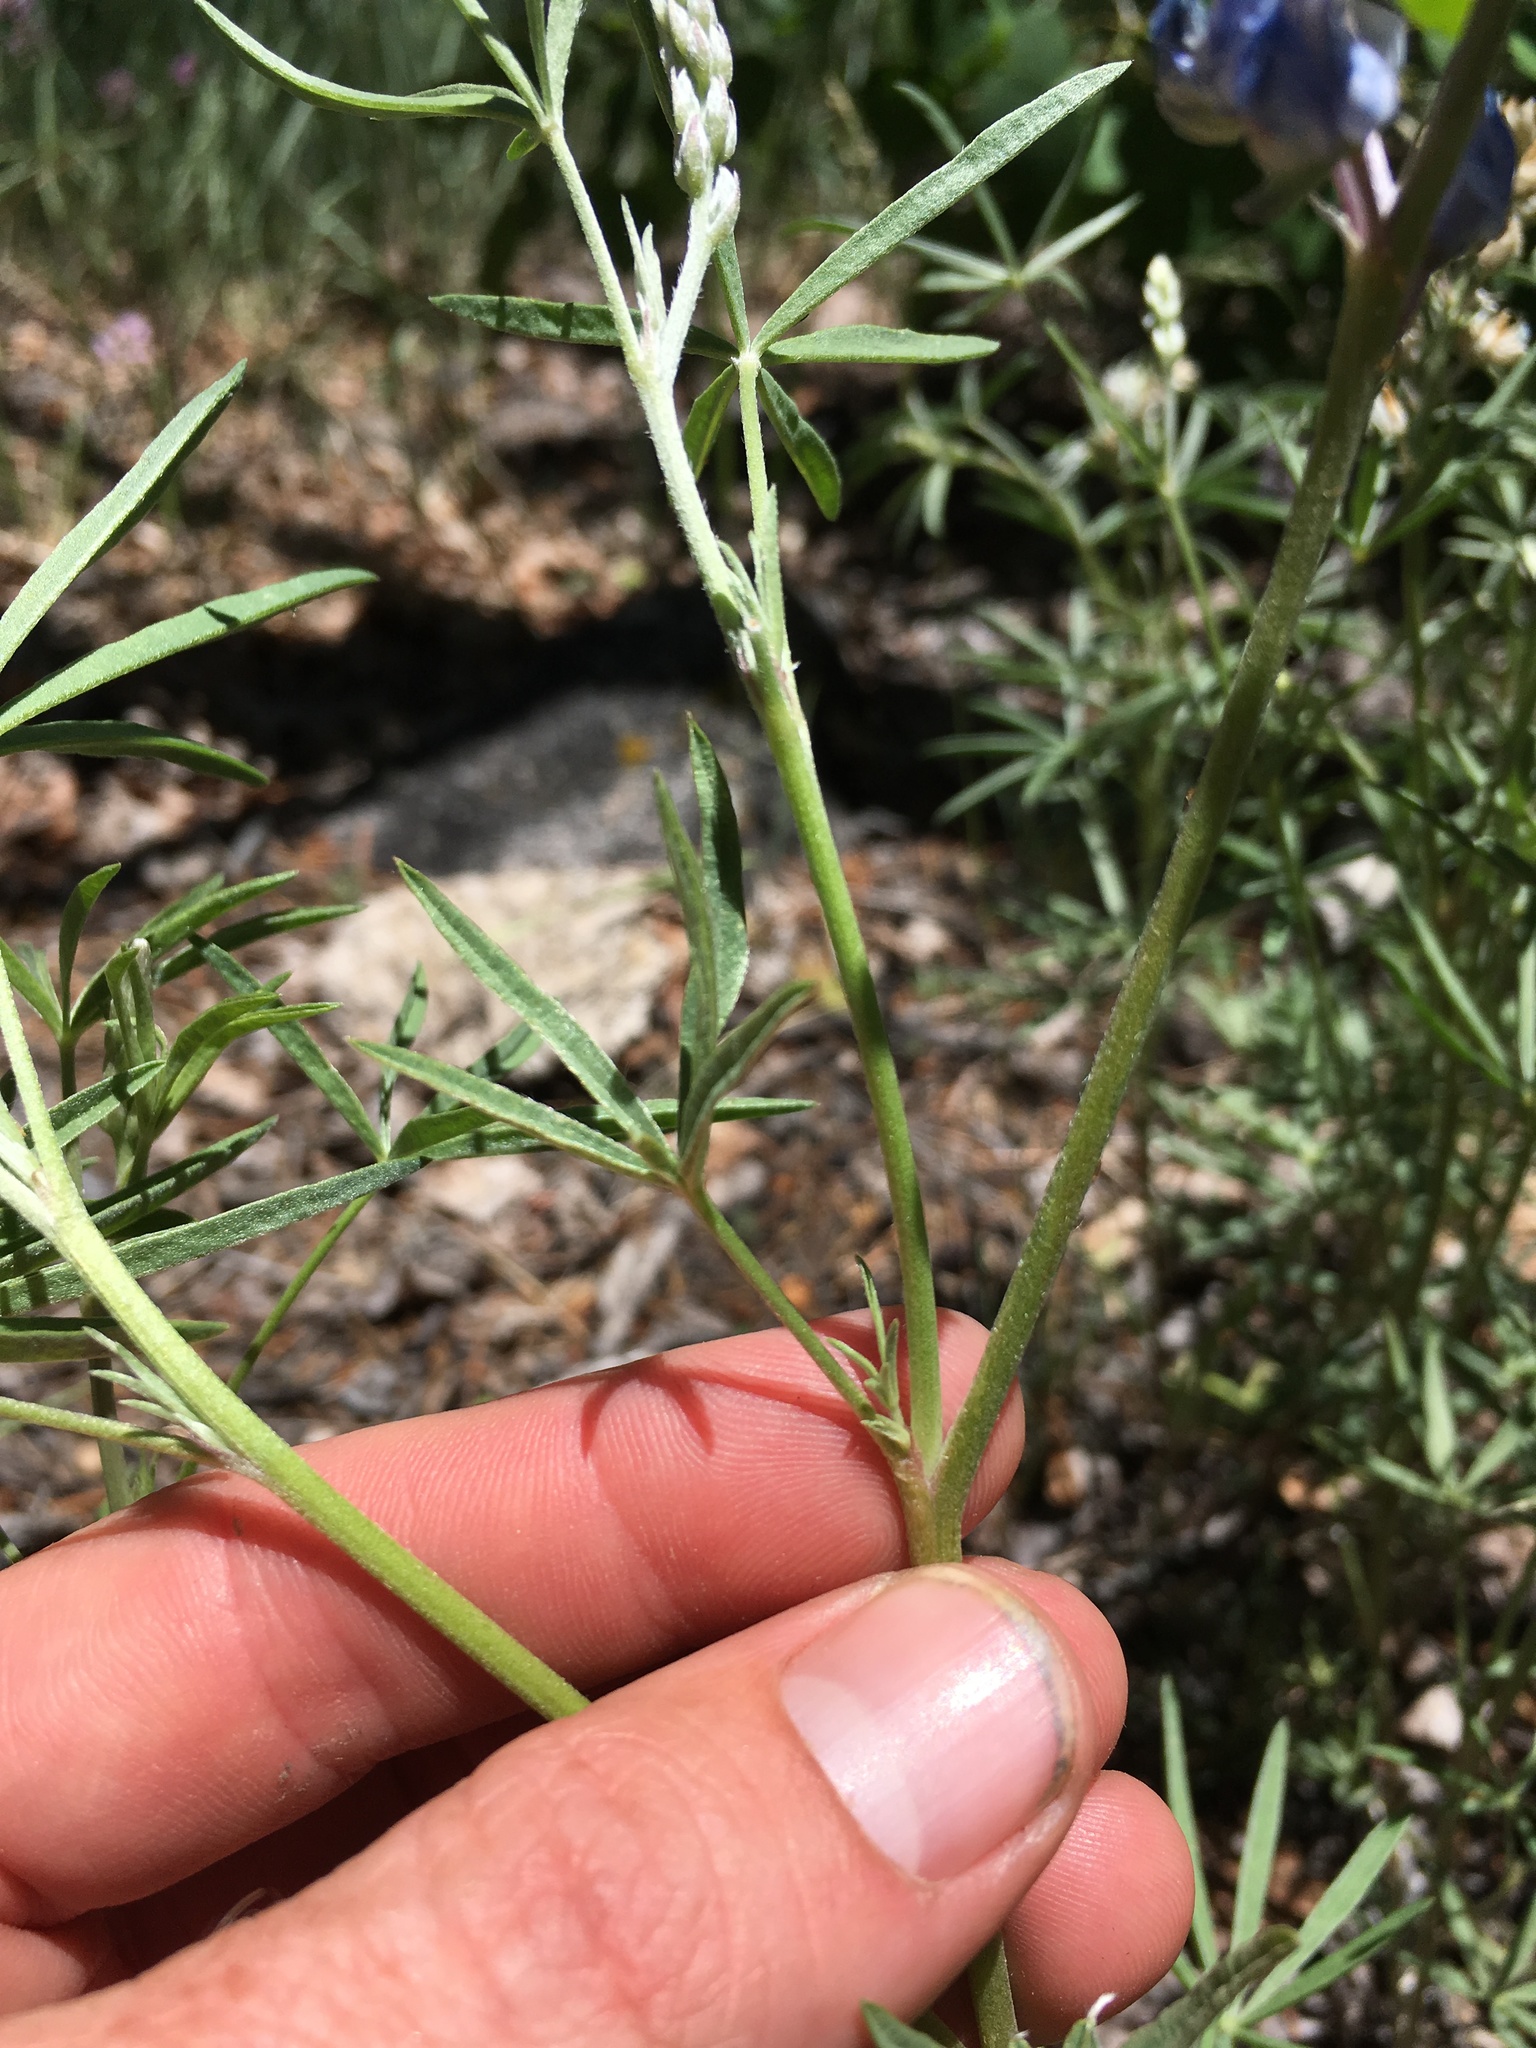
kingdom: Plantae
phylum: Tracheophyta
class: Magnoliopsida
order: Fabales
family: Fabaceae
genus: Lupinus
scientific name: Lupinus argenteus
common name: Silvery lupine
